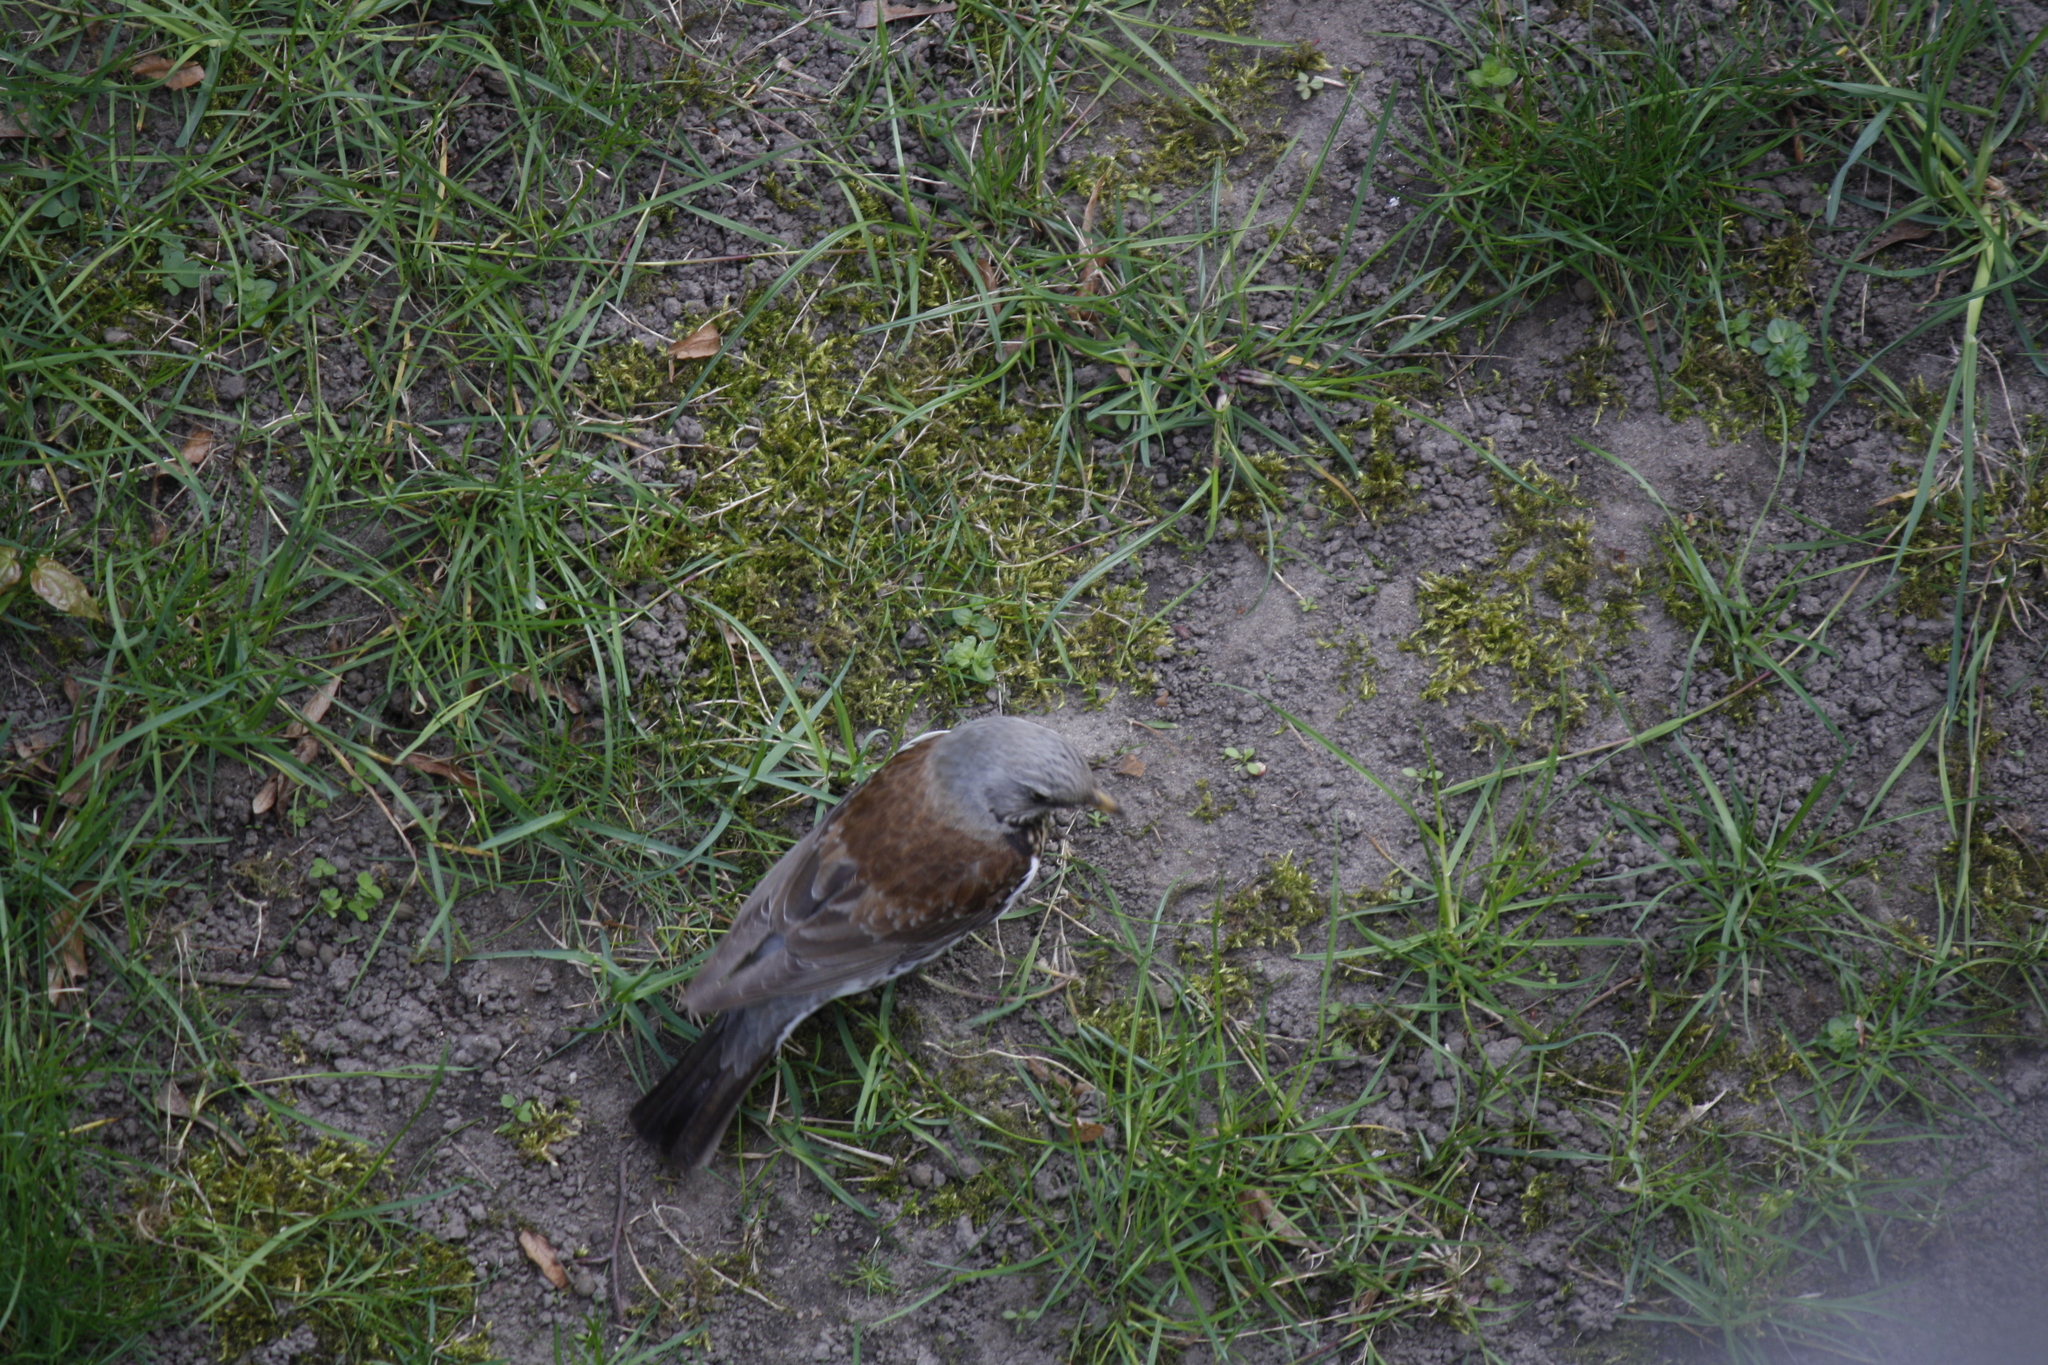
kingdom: Animalia
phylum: Chordata
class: Aves
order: Passeriformes
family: Turdidae
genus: Turdus
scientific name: Turdus pilaris
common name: Fieldfare
